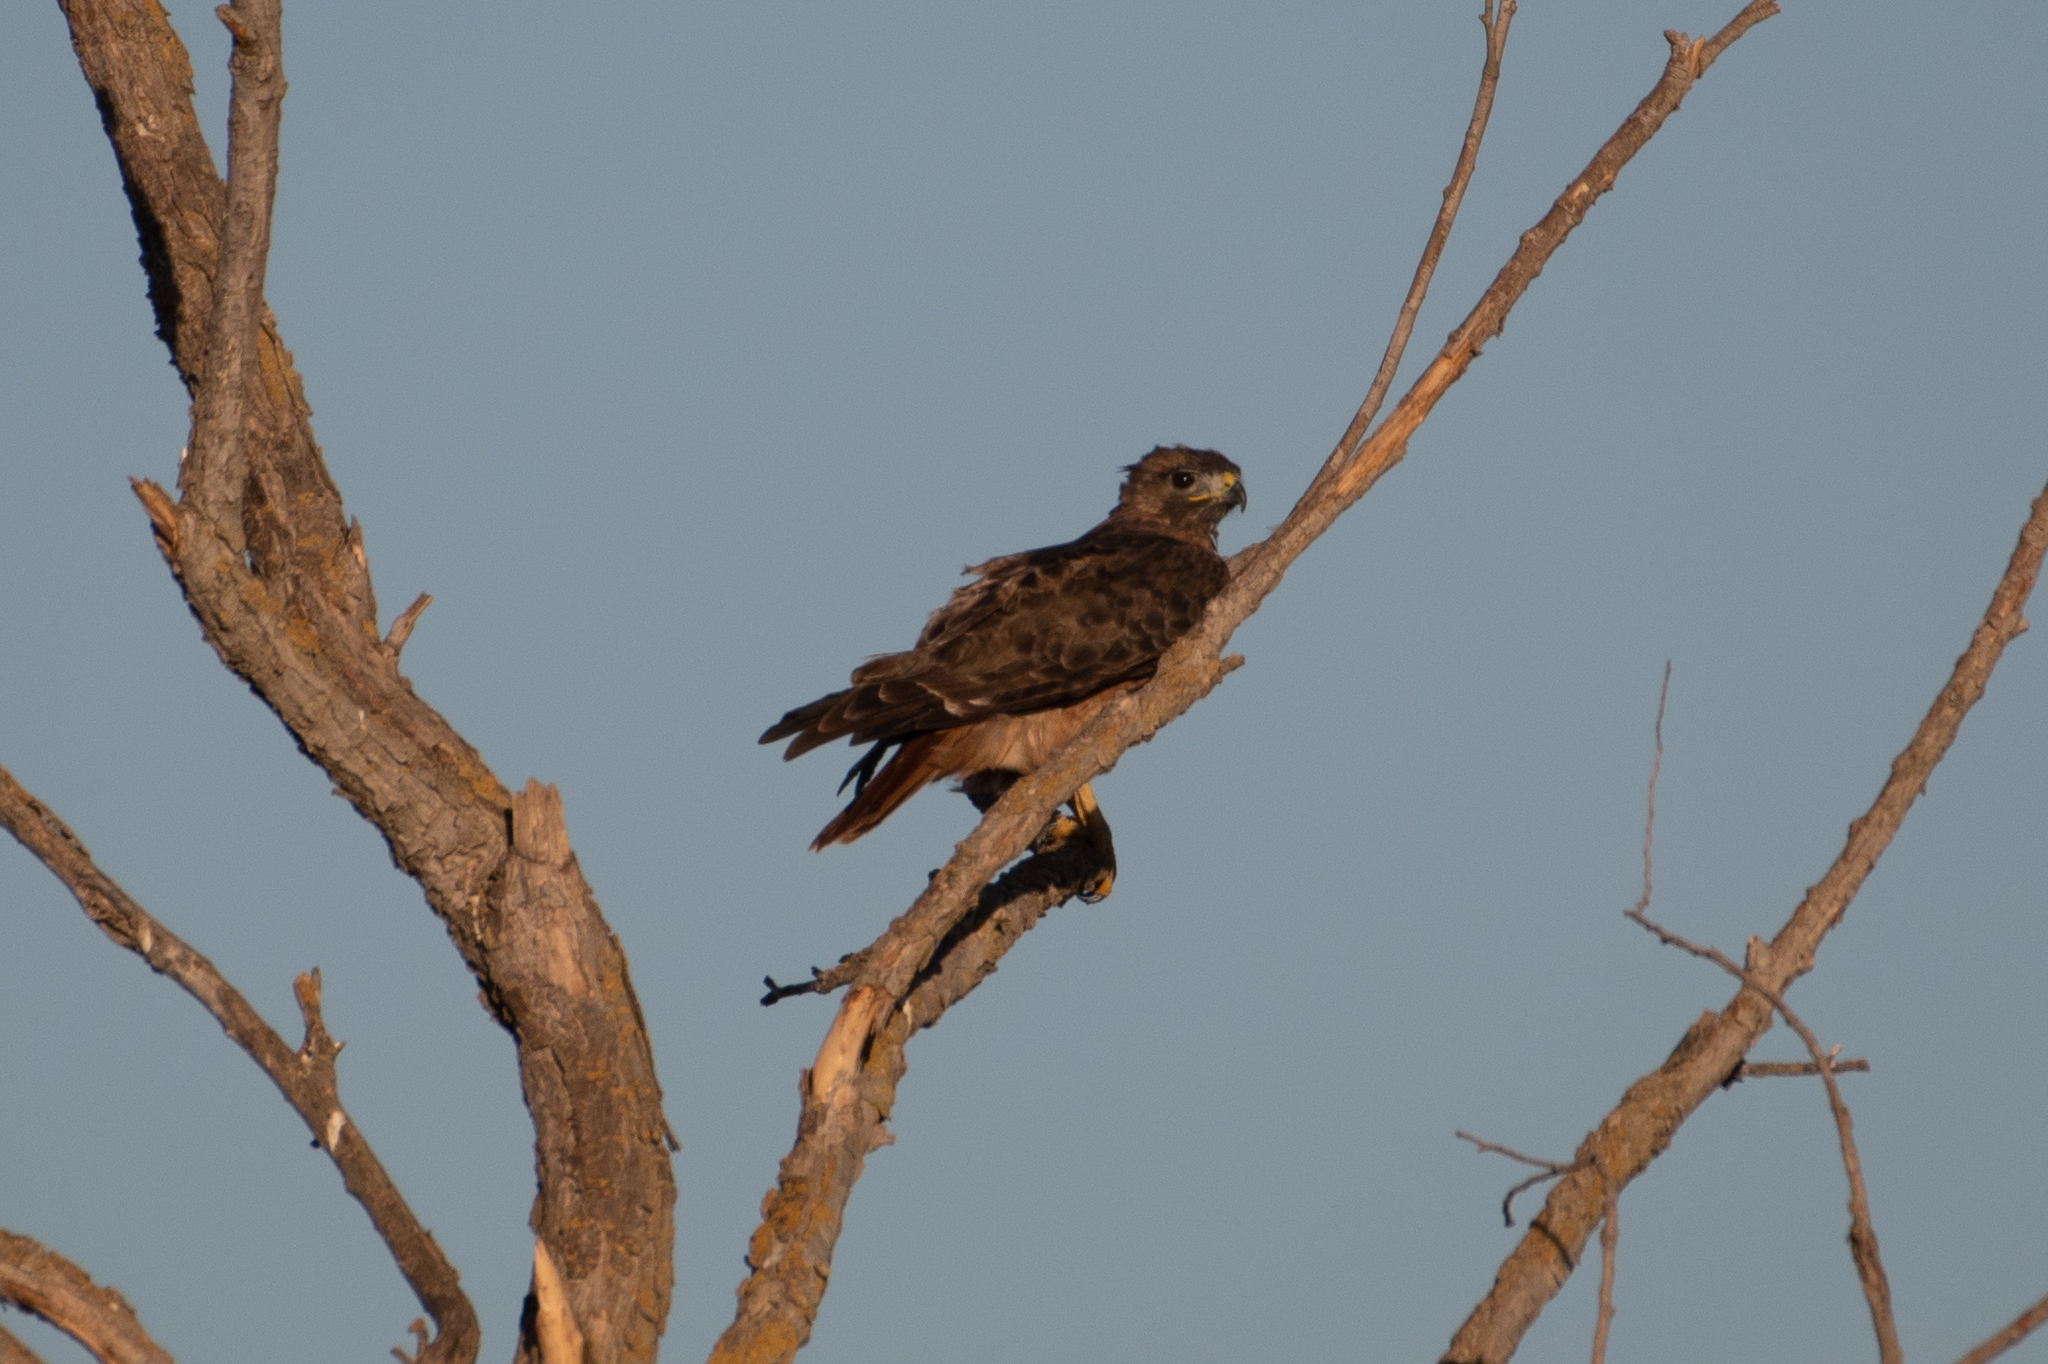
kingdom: Animalia
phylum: Chordata
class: Aves
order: Accipitriformes
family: Accipitridae
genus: Buteo
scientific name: Buteo jamaicensis
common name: Red-tailed hawk
